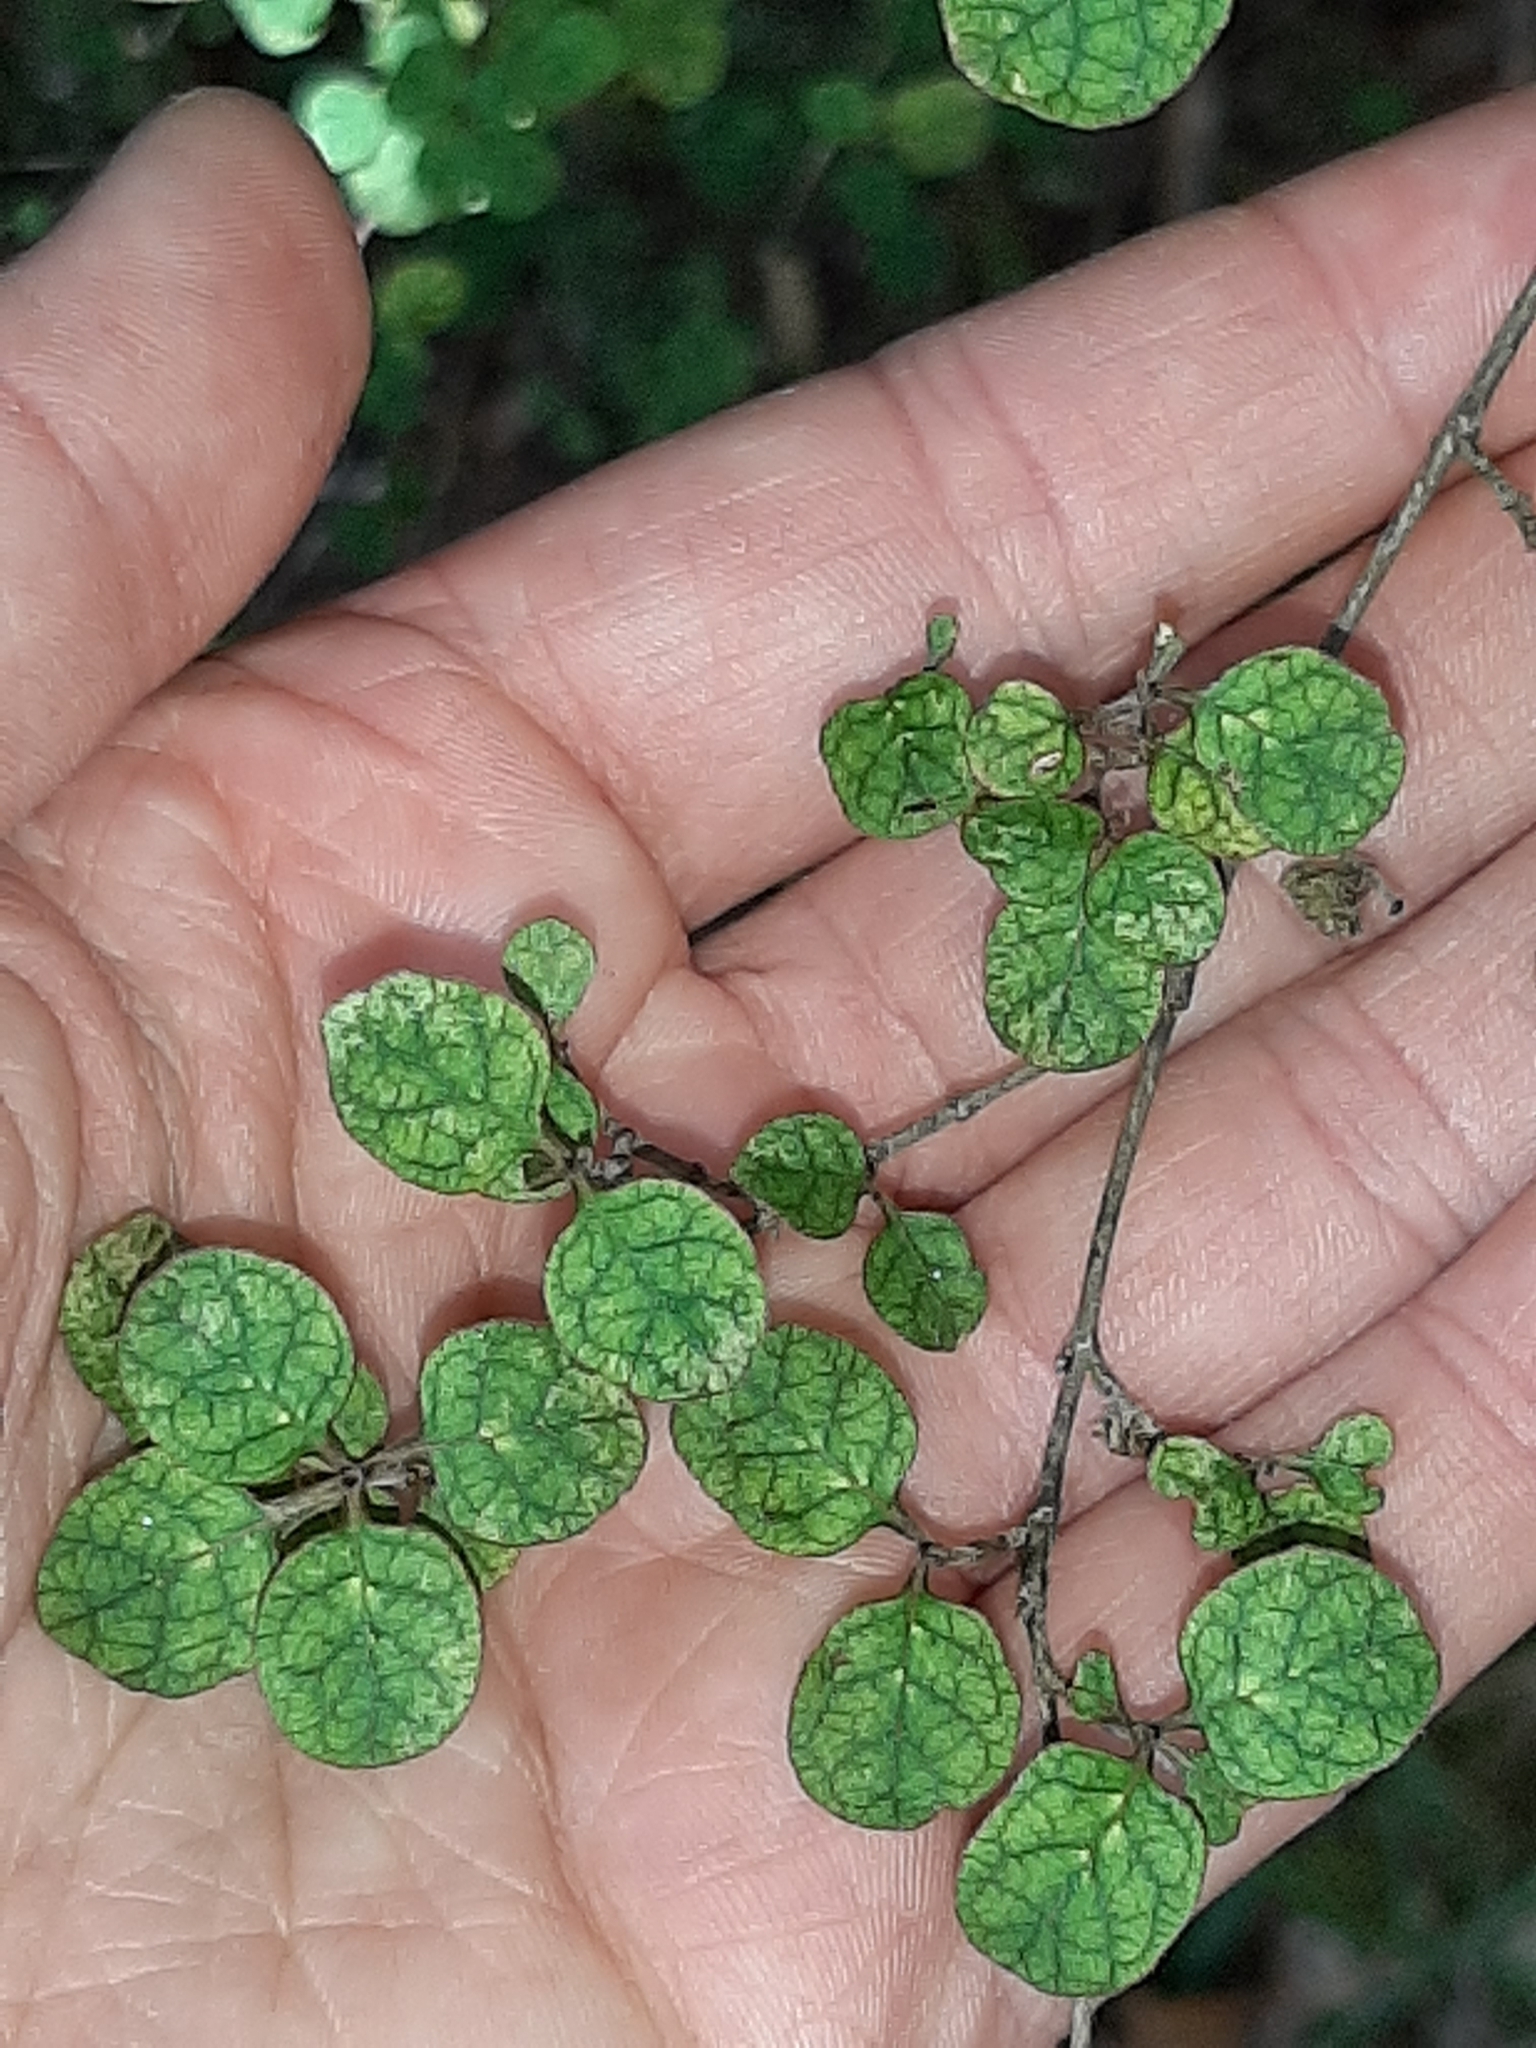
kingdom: Plantae
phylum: Tracheophyta
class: Magnoliopsida
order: Gentianales
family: Rubiaceae
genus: Coprosma
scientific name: Coprosma tenuicaulis
